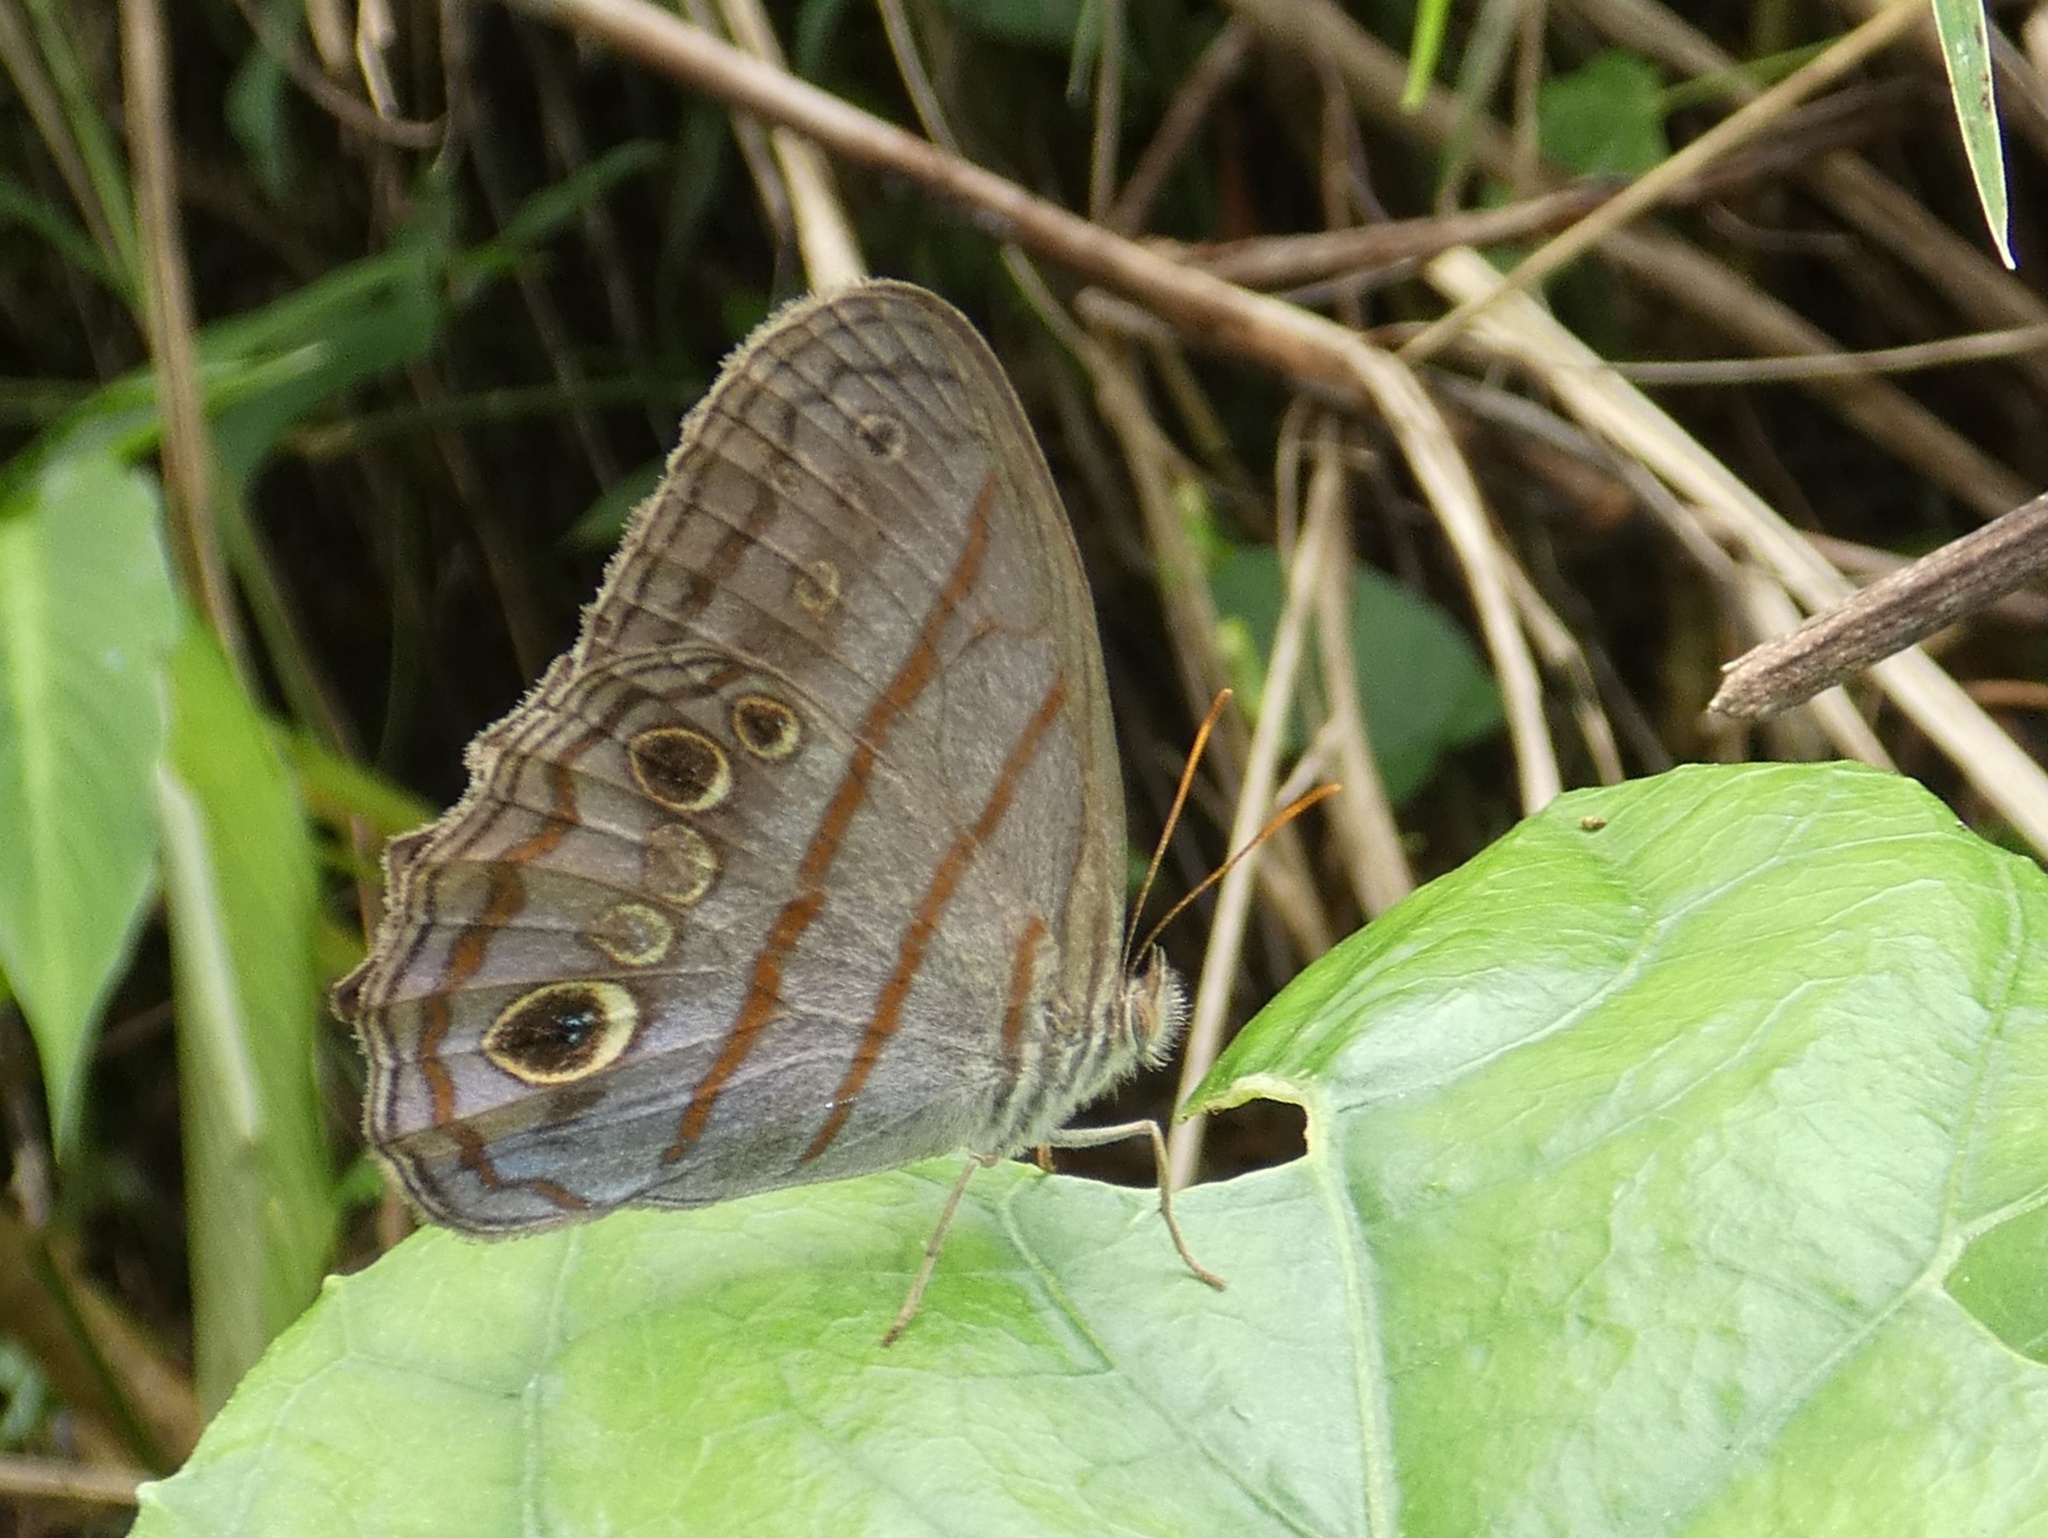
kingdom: Animalia
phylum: Arthropoda
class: Insecta
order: Lepidoptera
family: Nymphalidae
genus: Magneuptychia
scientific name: Magneuptychia libye
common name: Blue-gray satyr
